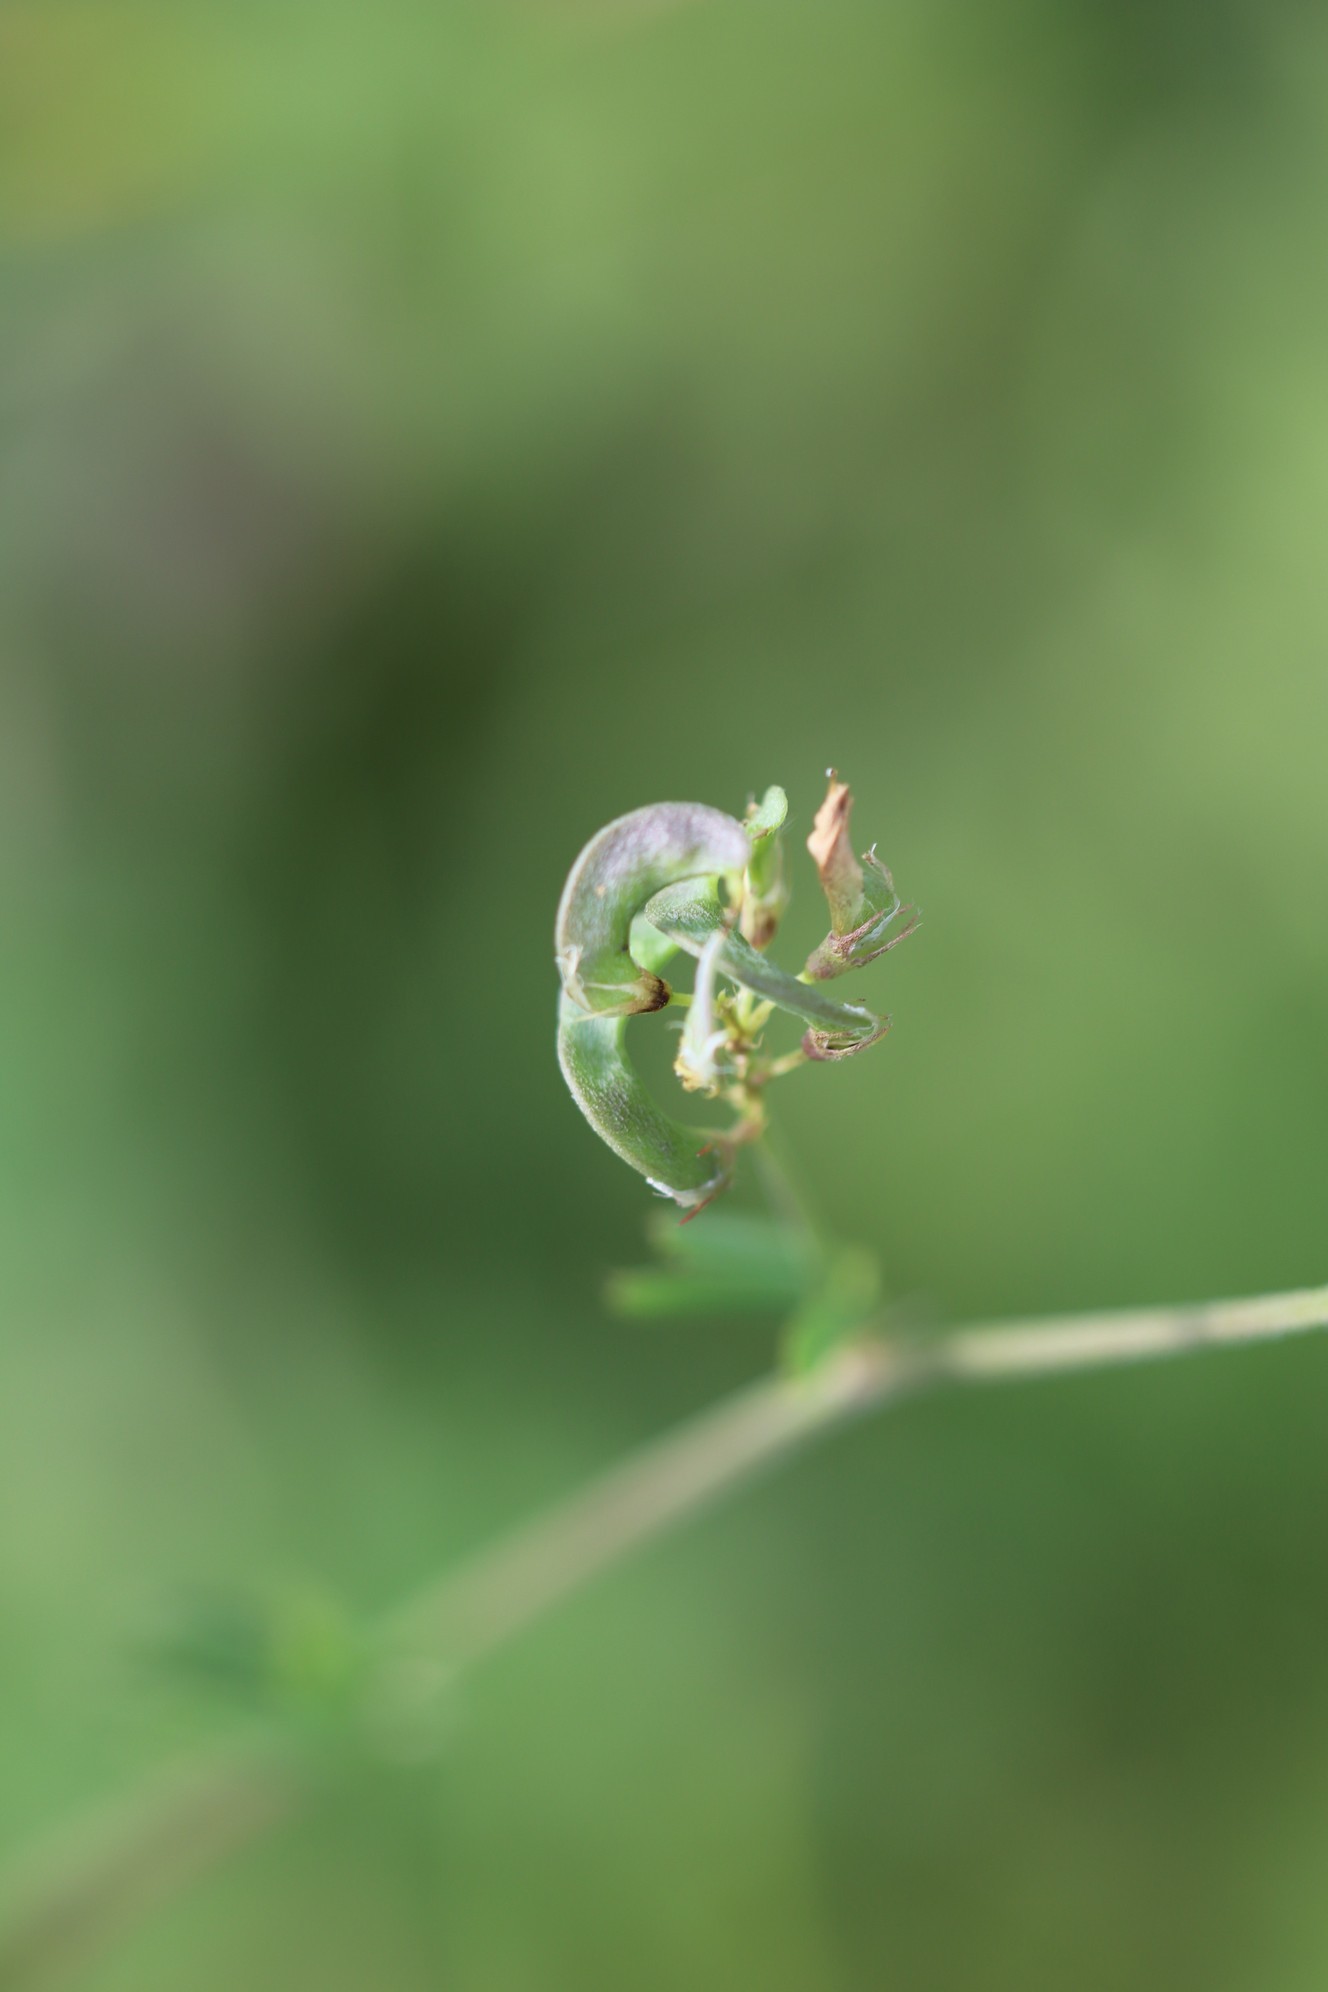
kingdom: Plantae
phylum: Tracheophyta
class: Magnoliopsida
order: Fabales
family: Fabaceae
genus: Medicago
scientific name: Medicago falcata
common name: Sickle medick
